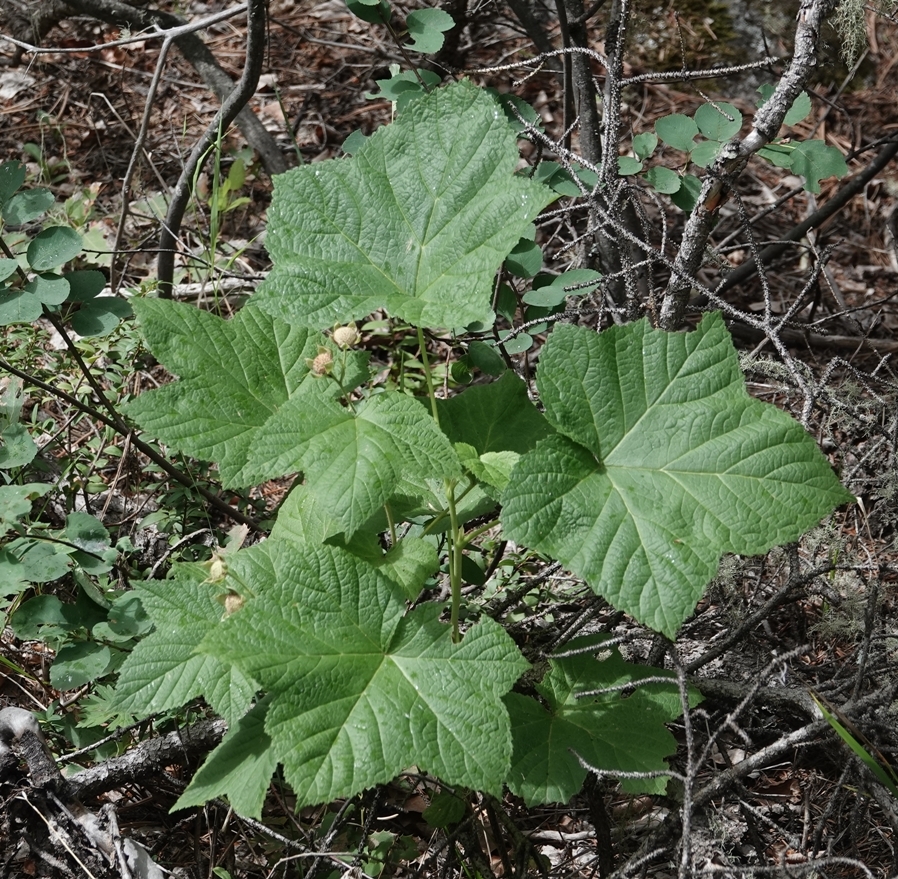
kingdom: Plantae
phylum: Tracheophyta
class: Magnoliopsida
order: Rosales
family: Rosaceae
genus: Rubus
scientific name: Rubus parviflorus
